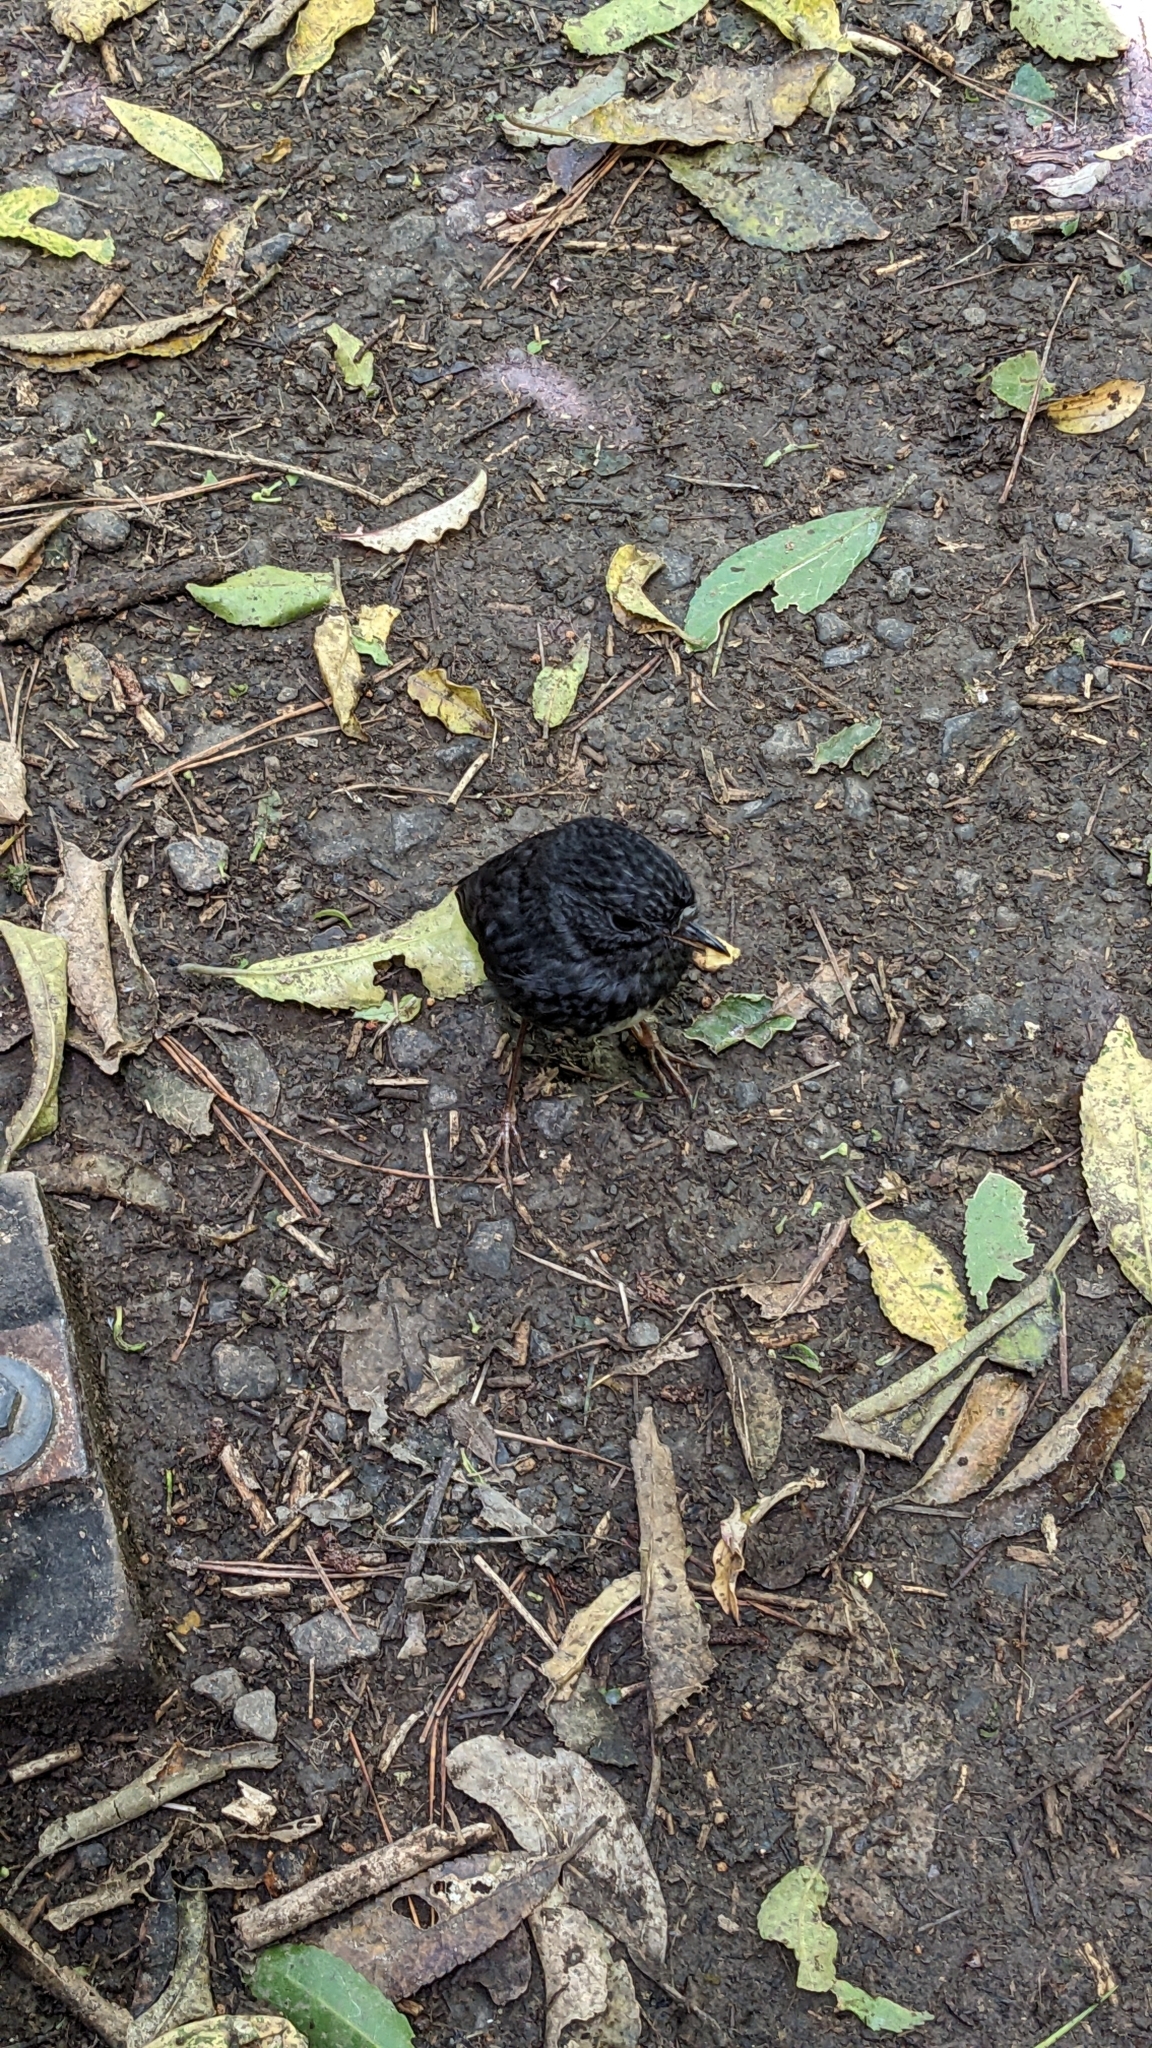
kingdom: Animalia
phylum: Chordata
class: Aves
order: Passeriformes
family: Petroicidae
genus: Petroica
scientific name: Petroica australis
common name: New zealand robin
